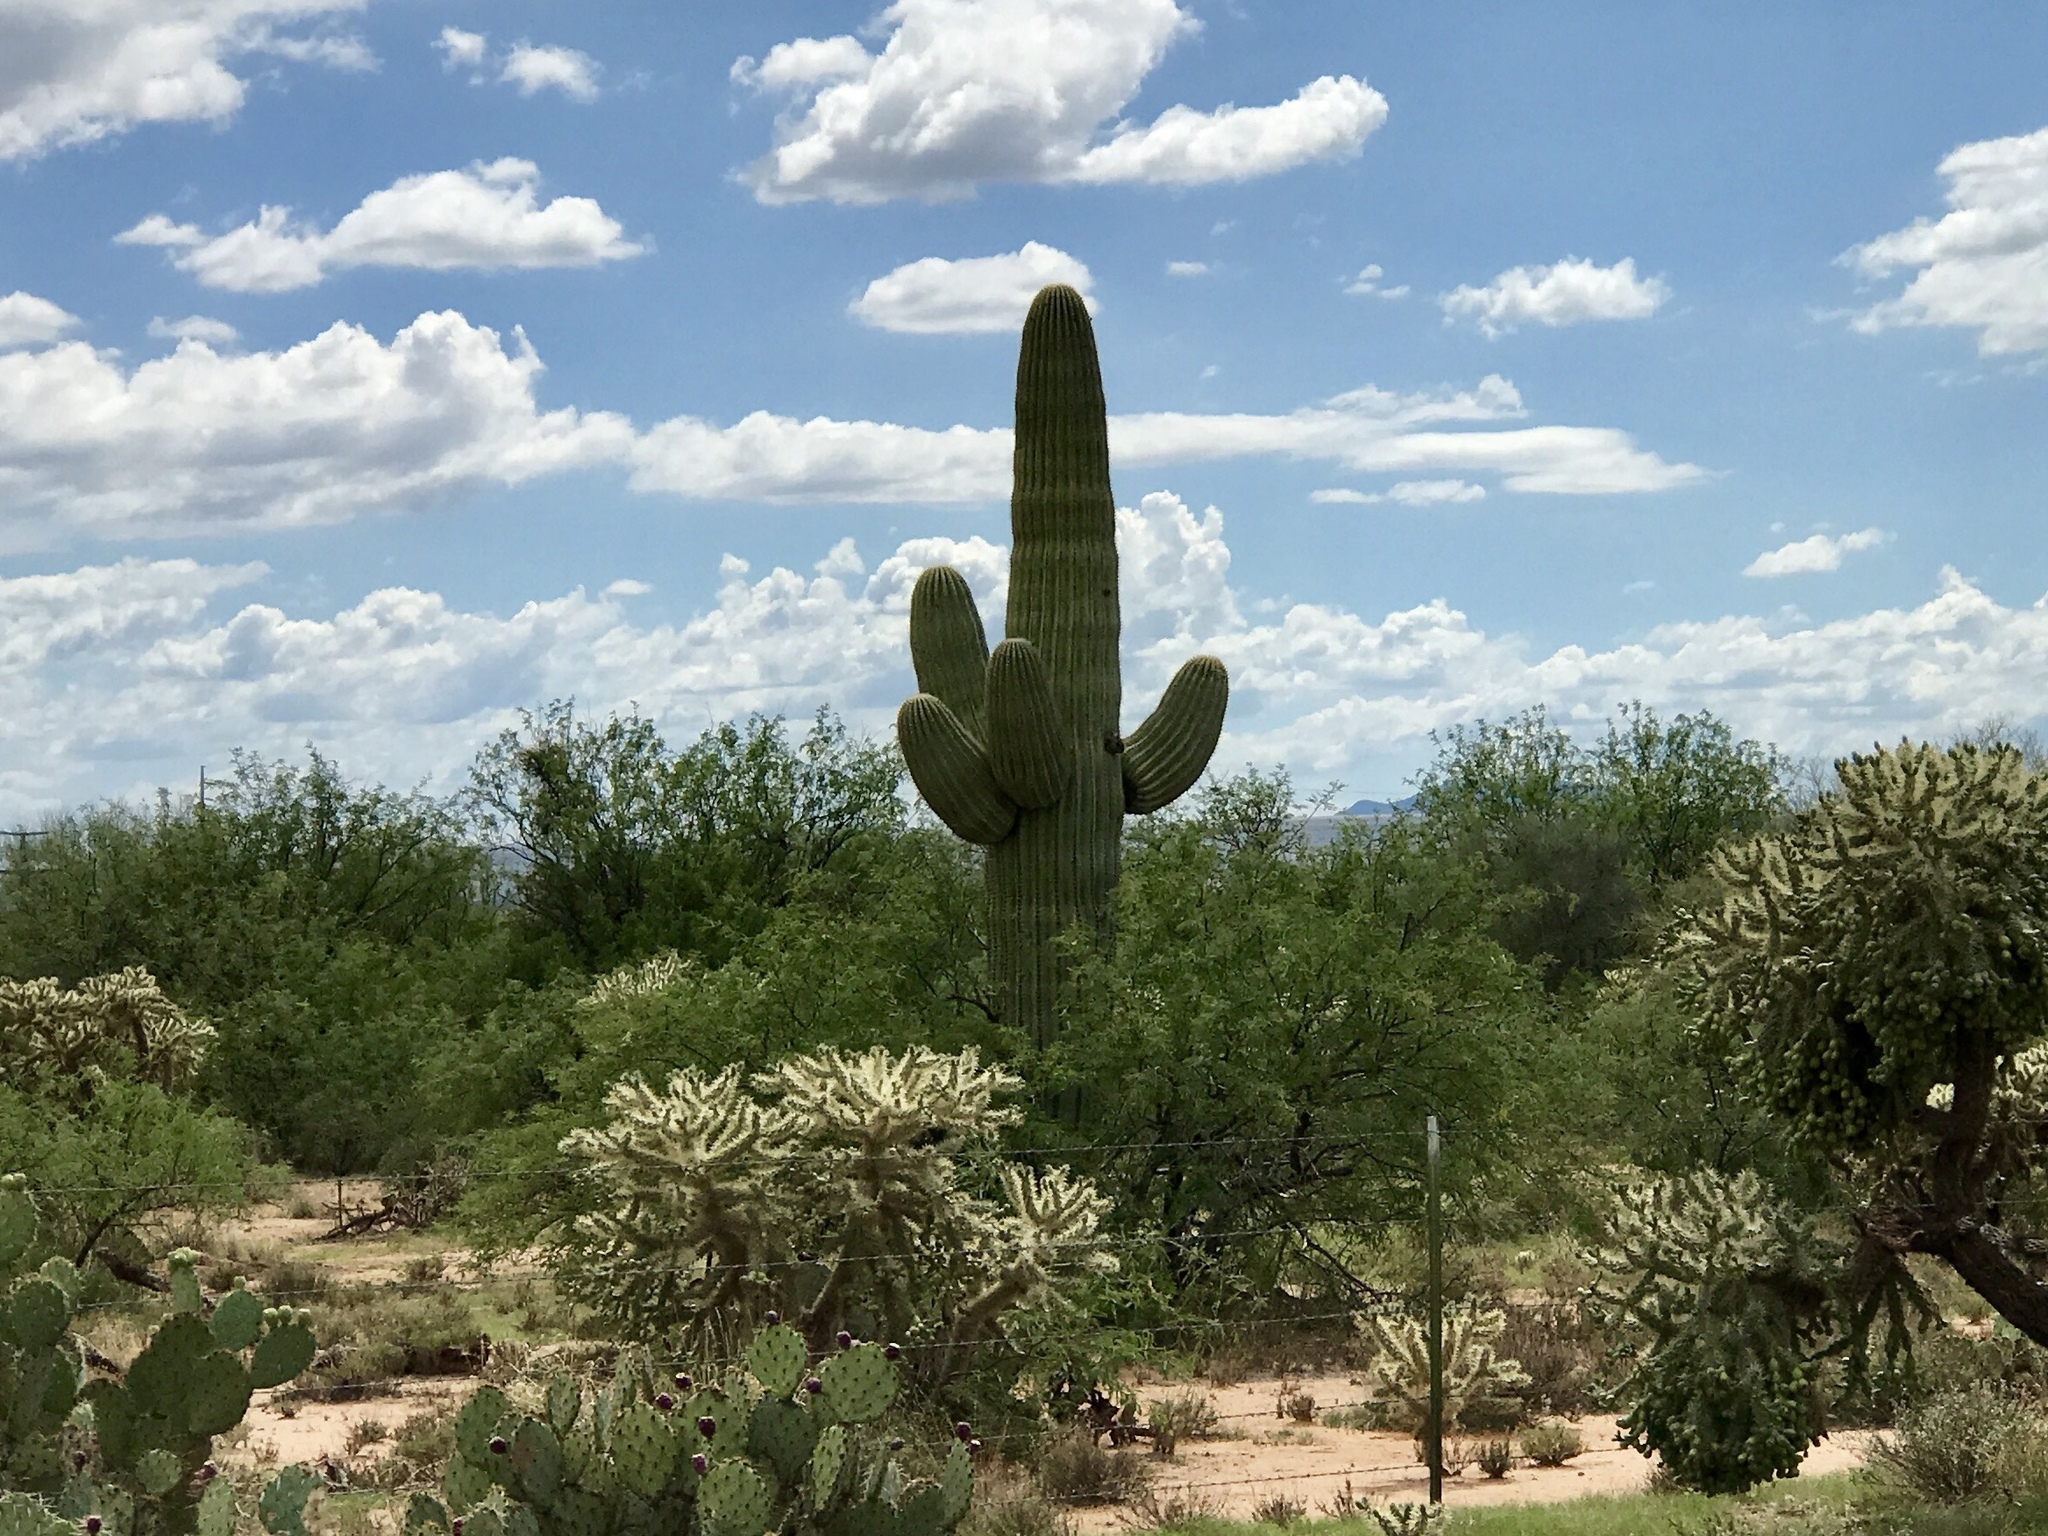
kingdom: Plantae
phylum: Tracheophyta
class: Magnoliopsida
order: Caryophyllales
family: Cactaceae
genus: Carnegiea
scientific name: Carnegiea gigantea
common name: Saguaro
